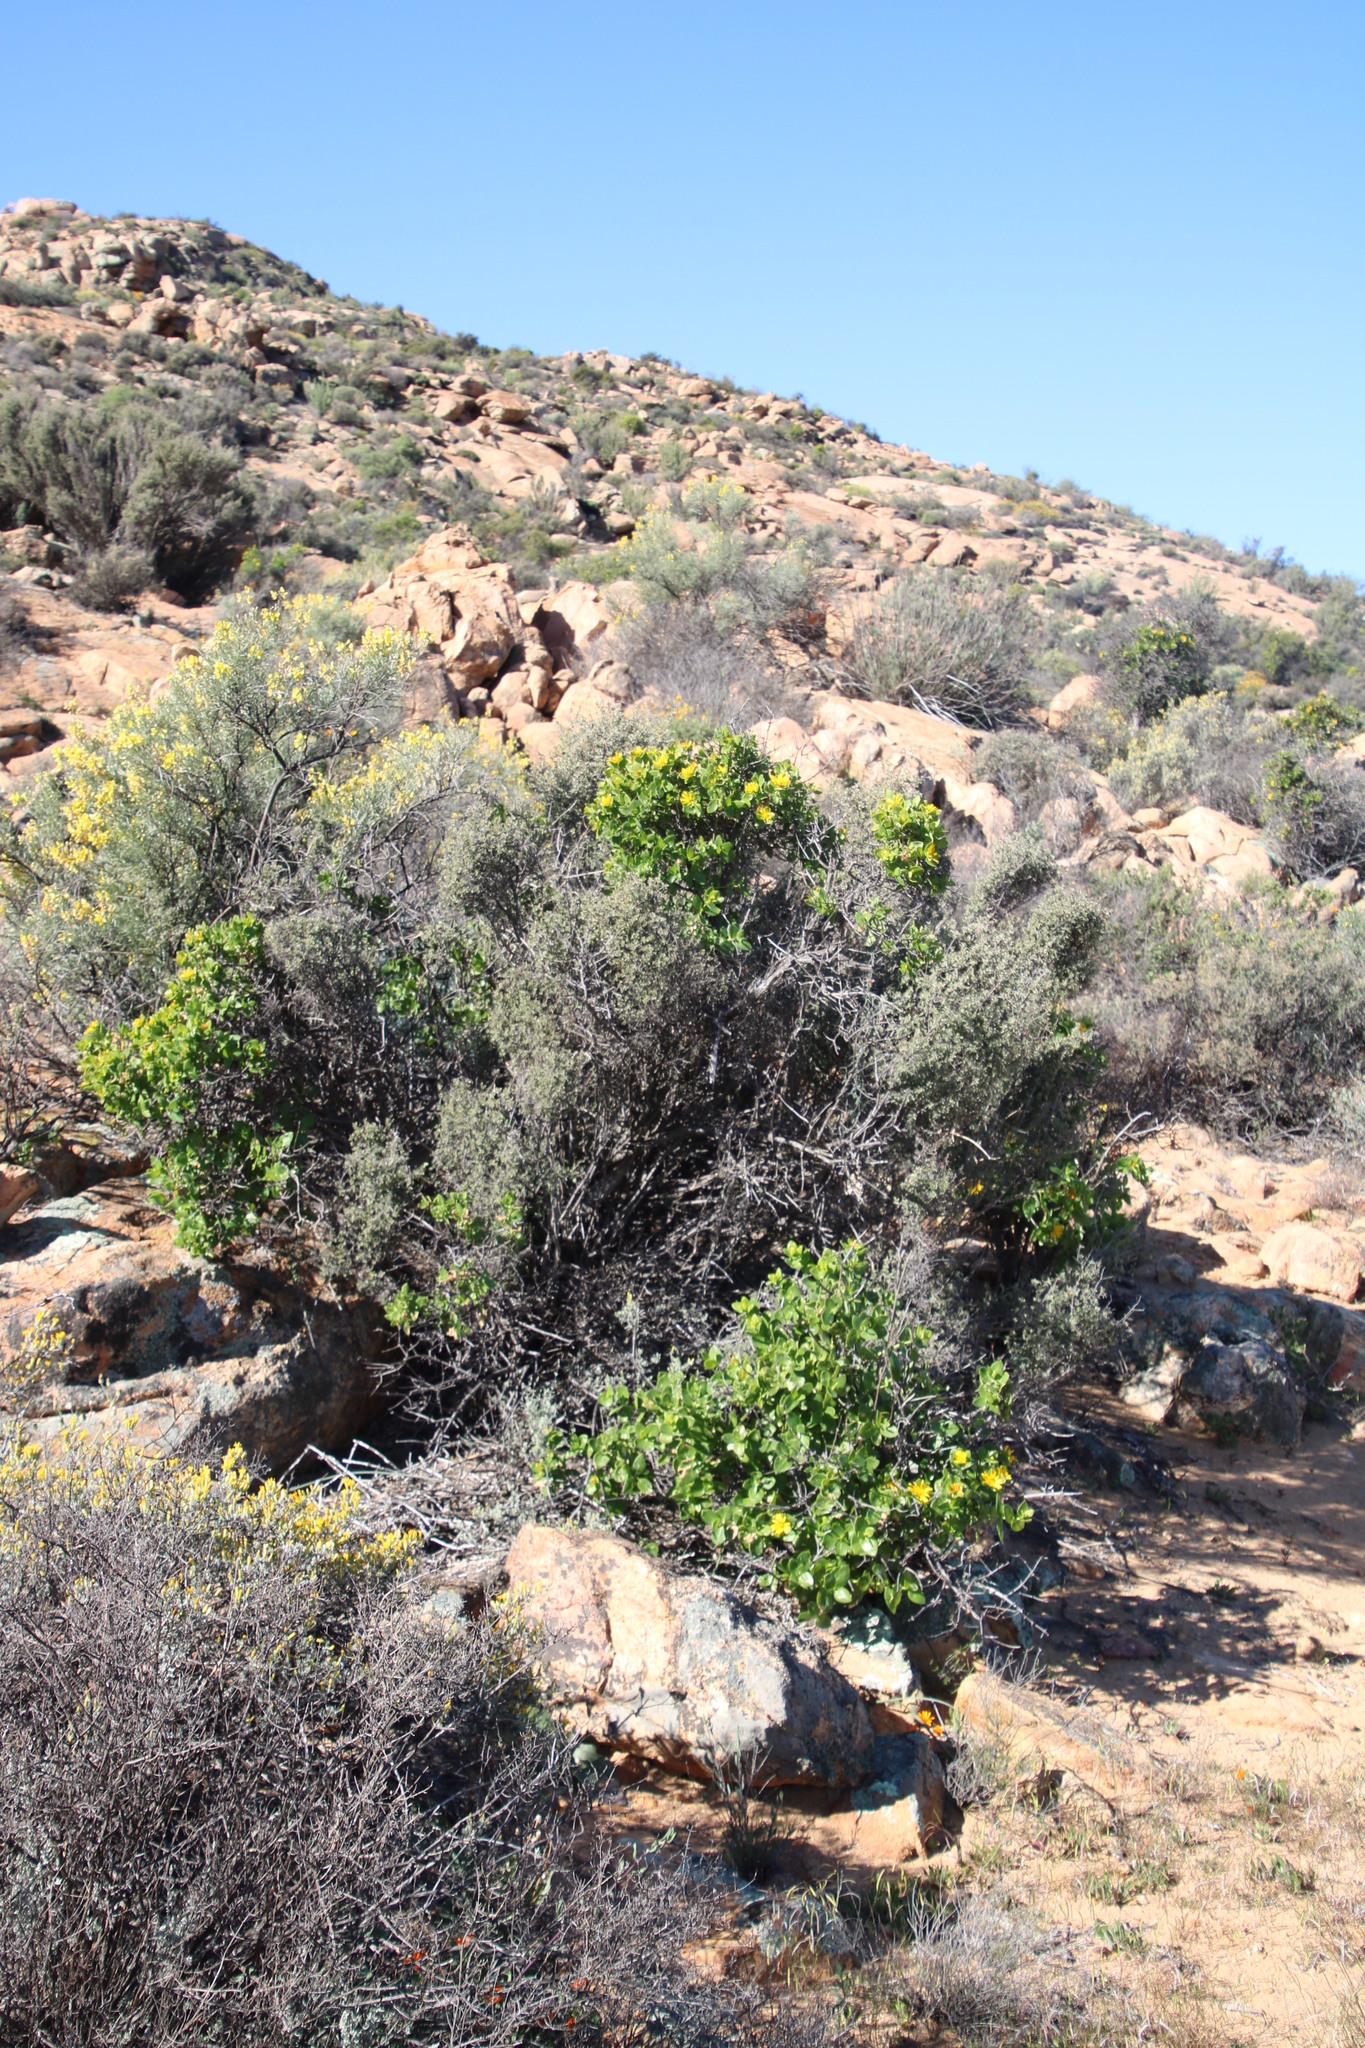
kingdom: Plantae
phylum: Tracheophyta
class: Magnoliopsida
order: Asterales
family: Asteraceae
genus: Didelta
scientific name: Didelta spinosa
